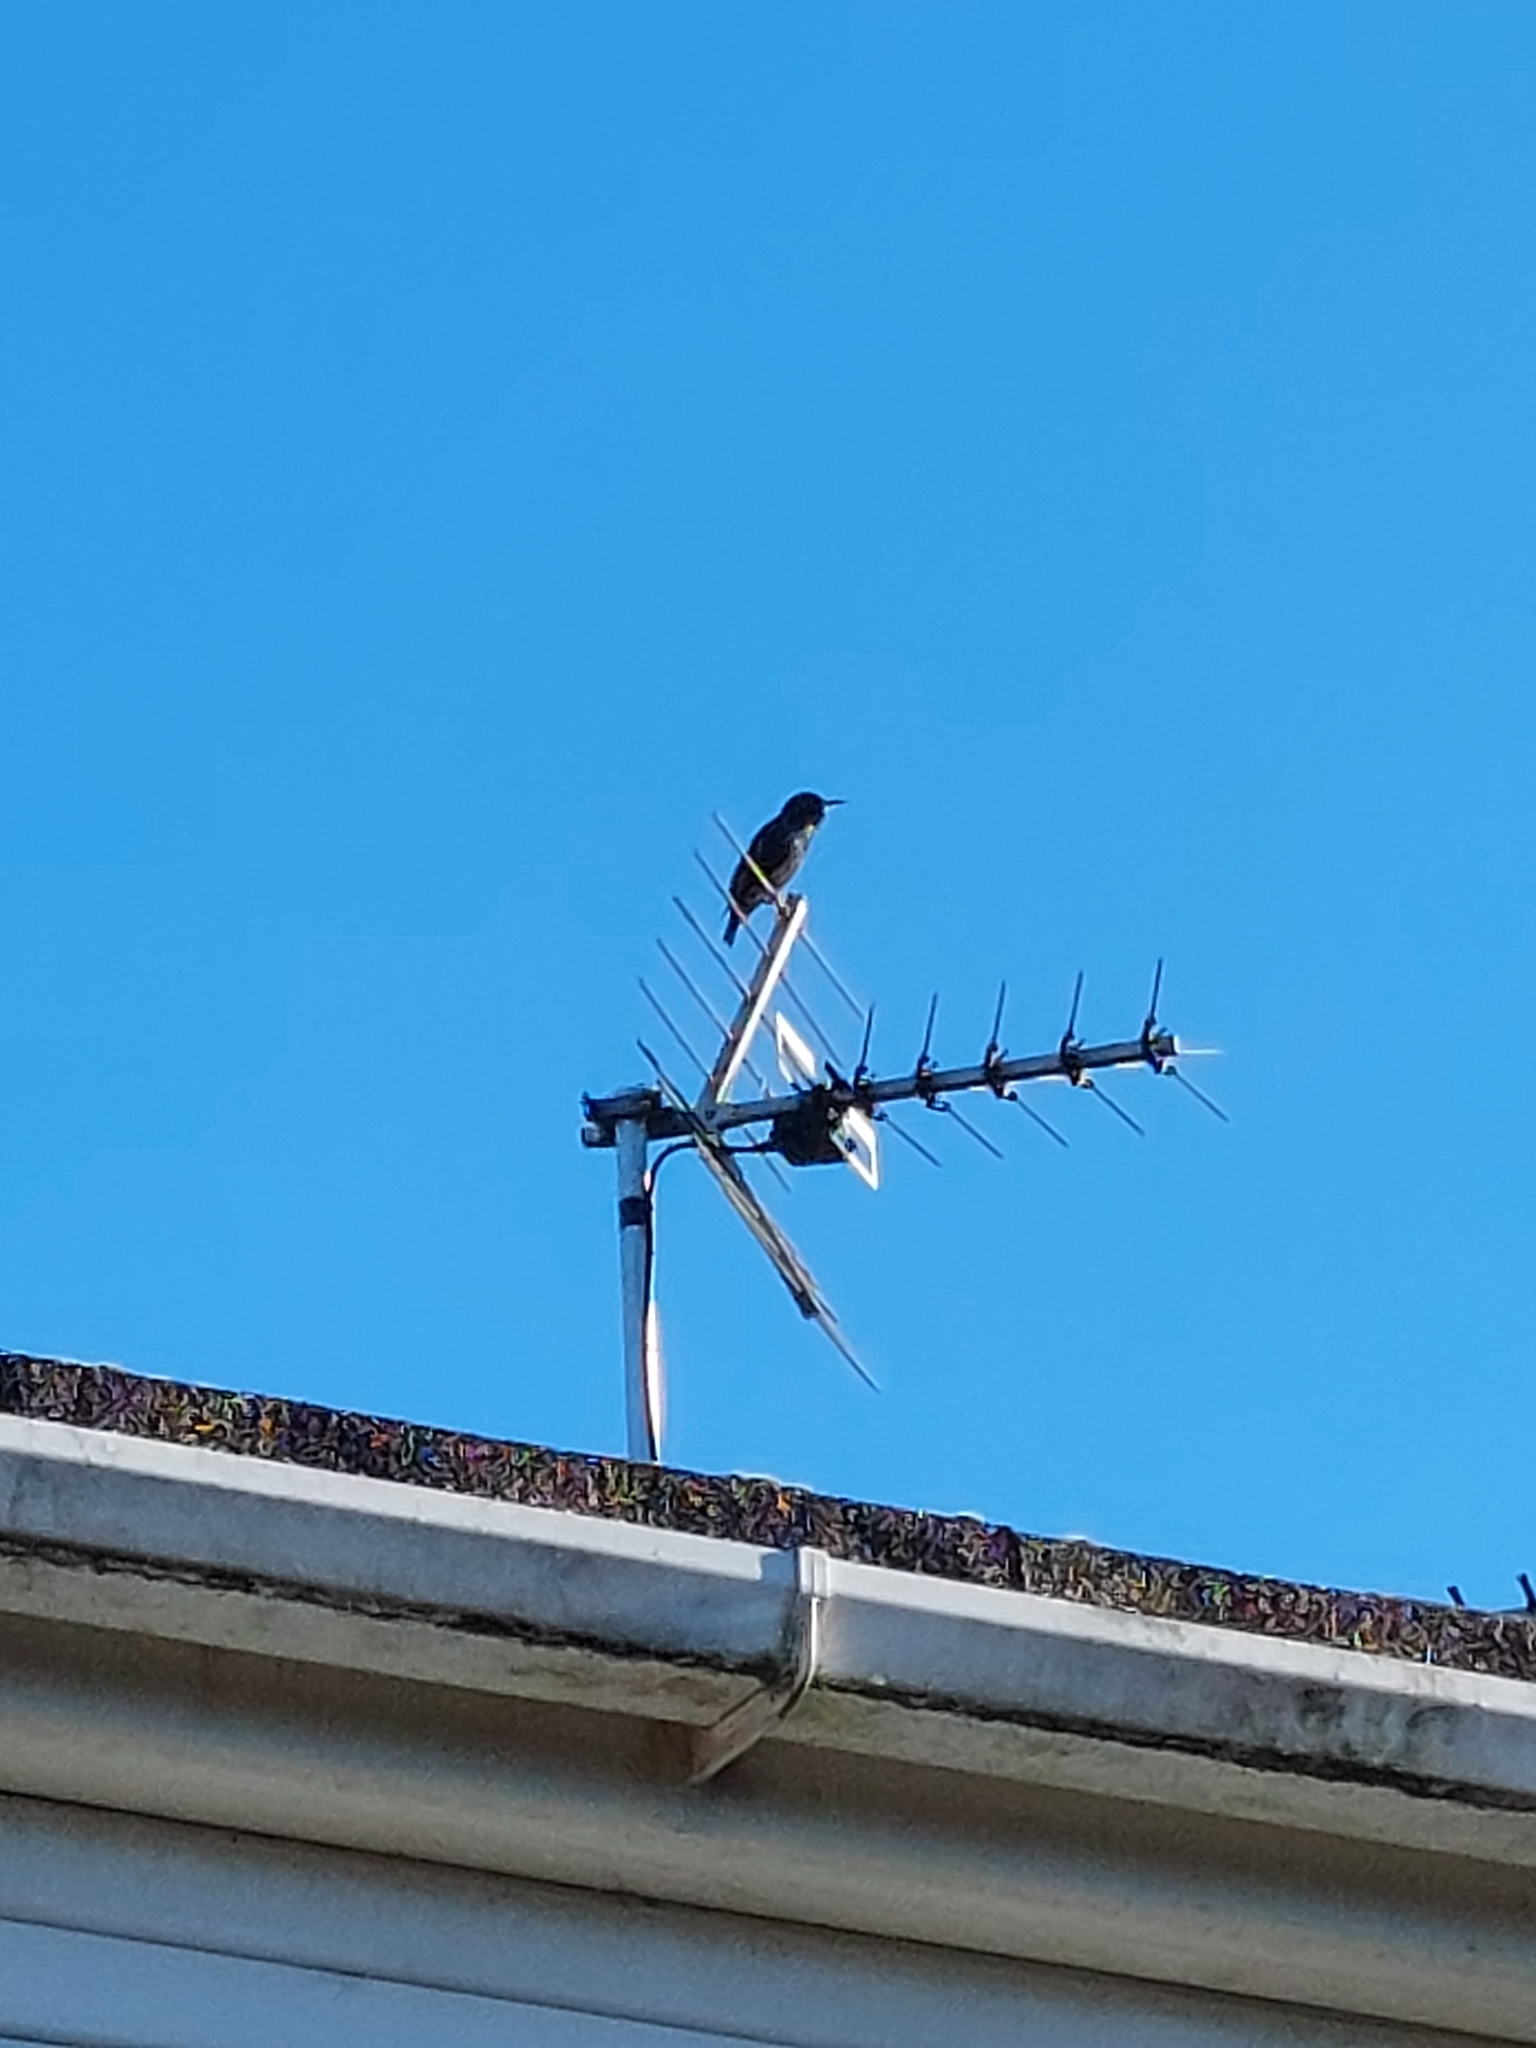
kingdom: Animalia
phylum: Chordata
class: Aves
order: Passeriformes
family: Sturnidae
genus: Sturnus
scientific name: Sturnus vulgaris
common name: Common starling
